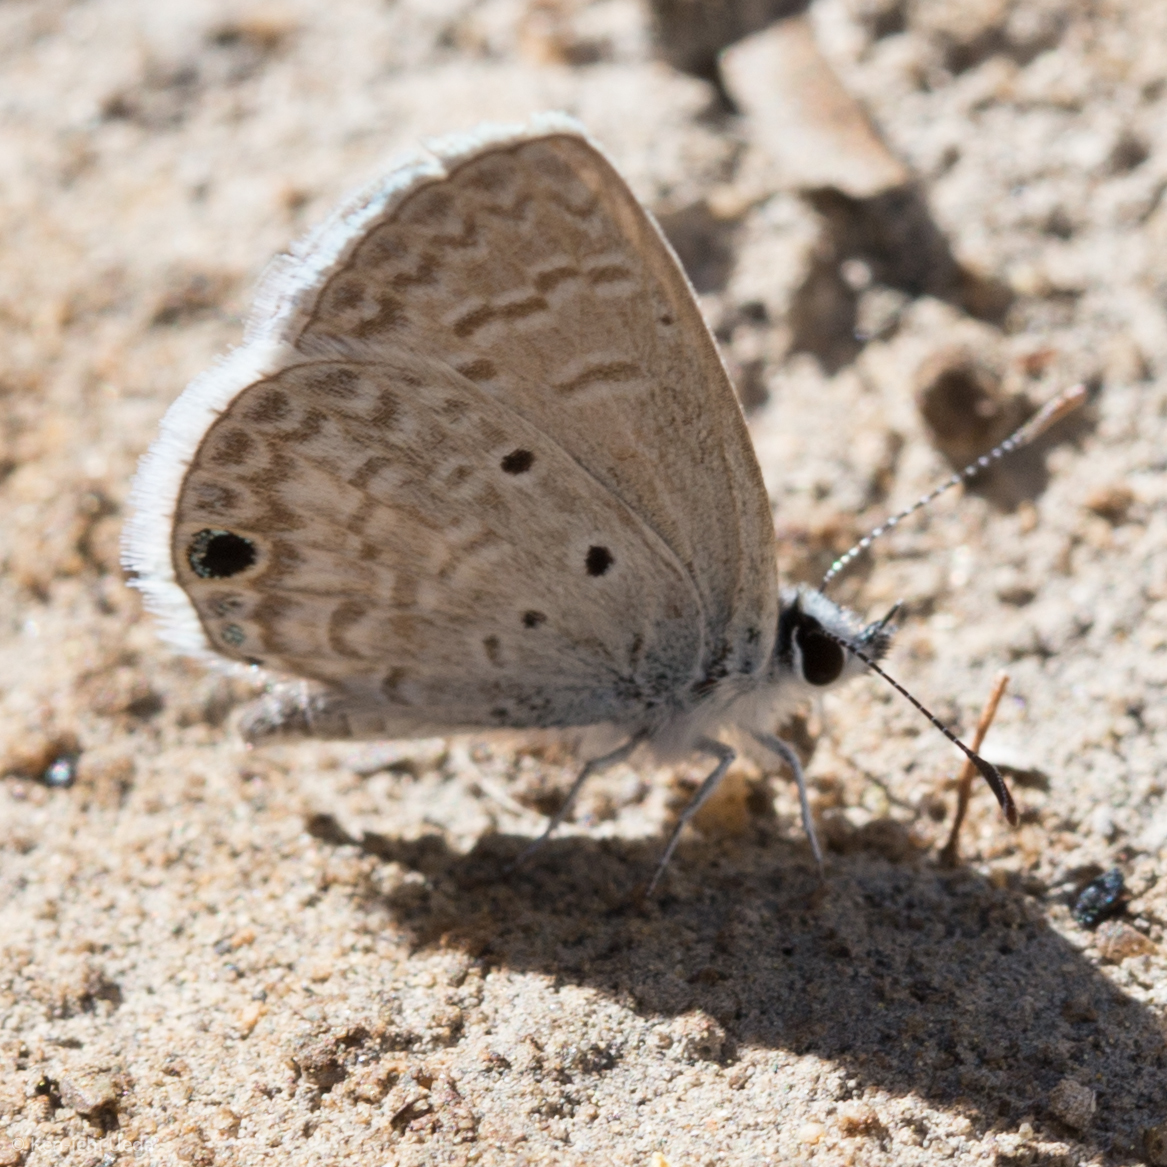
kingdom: Animalia
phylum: Arthropoda
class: Insecta
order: Lepidoptera
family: Lycaenidae
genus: Hemiargus
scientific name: Hemiargus ceraunus
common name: Ceraunus blue
